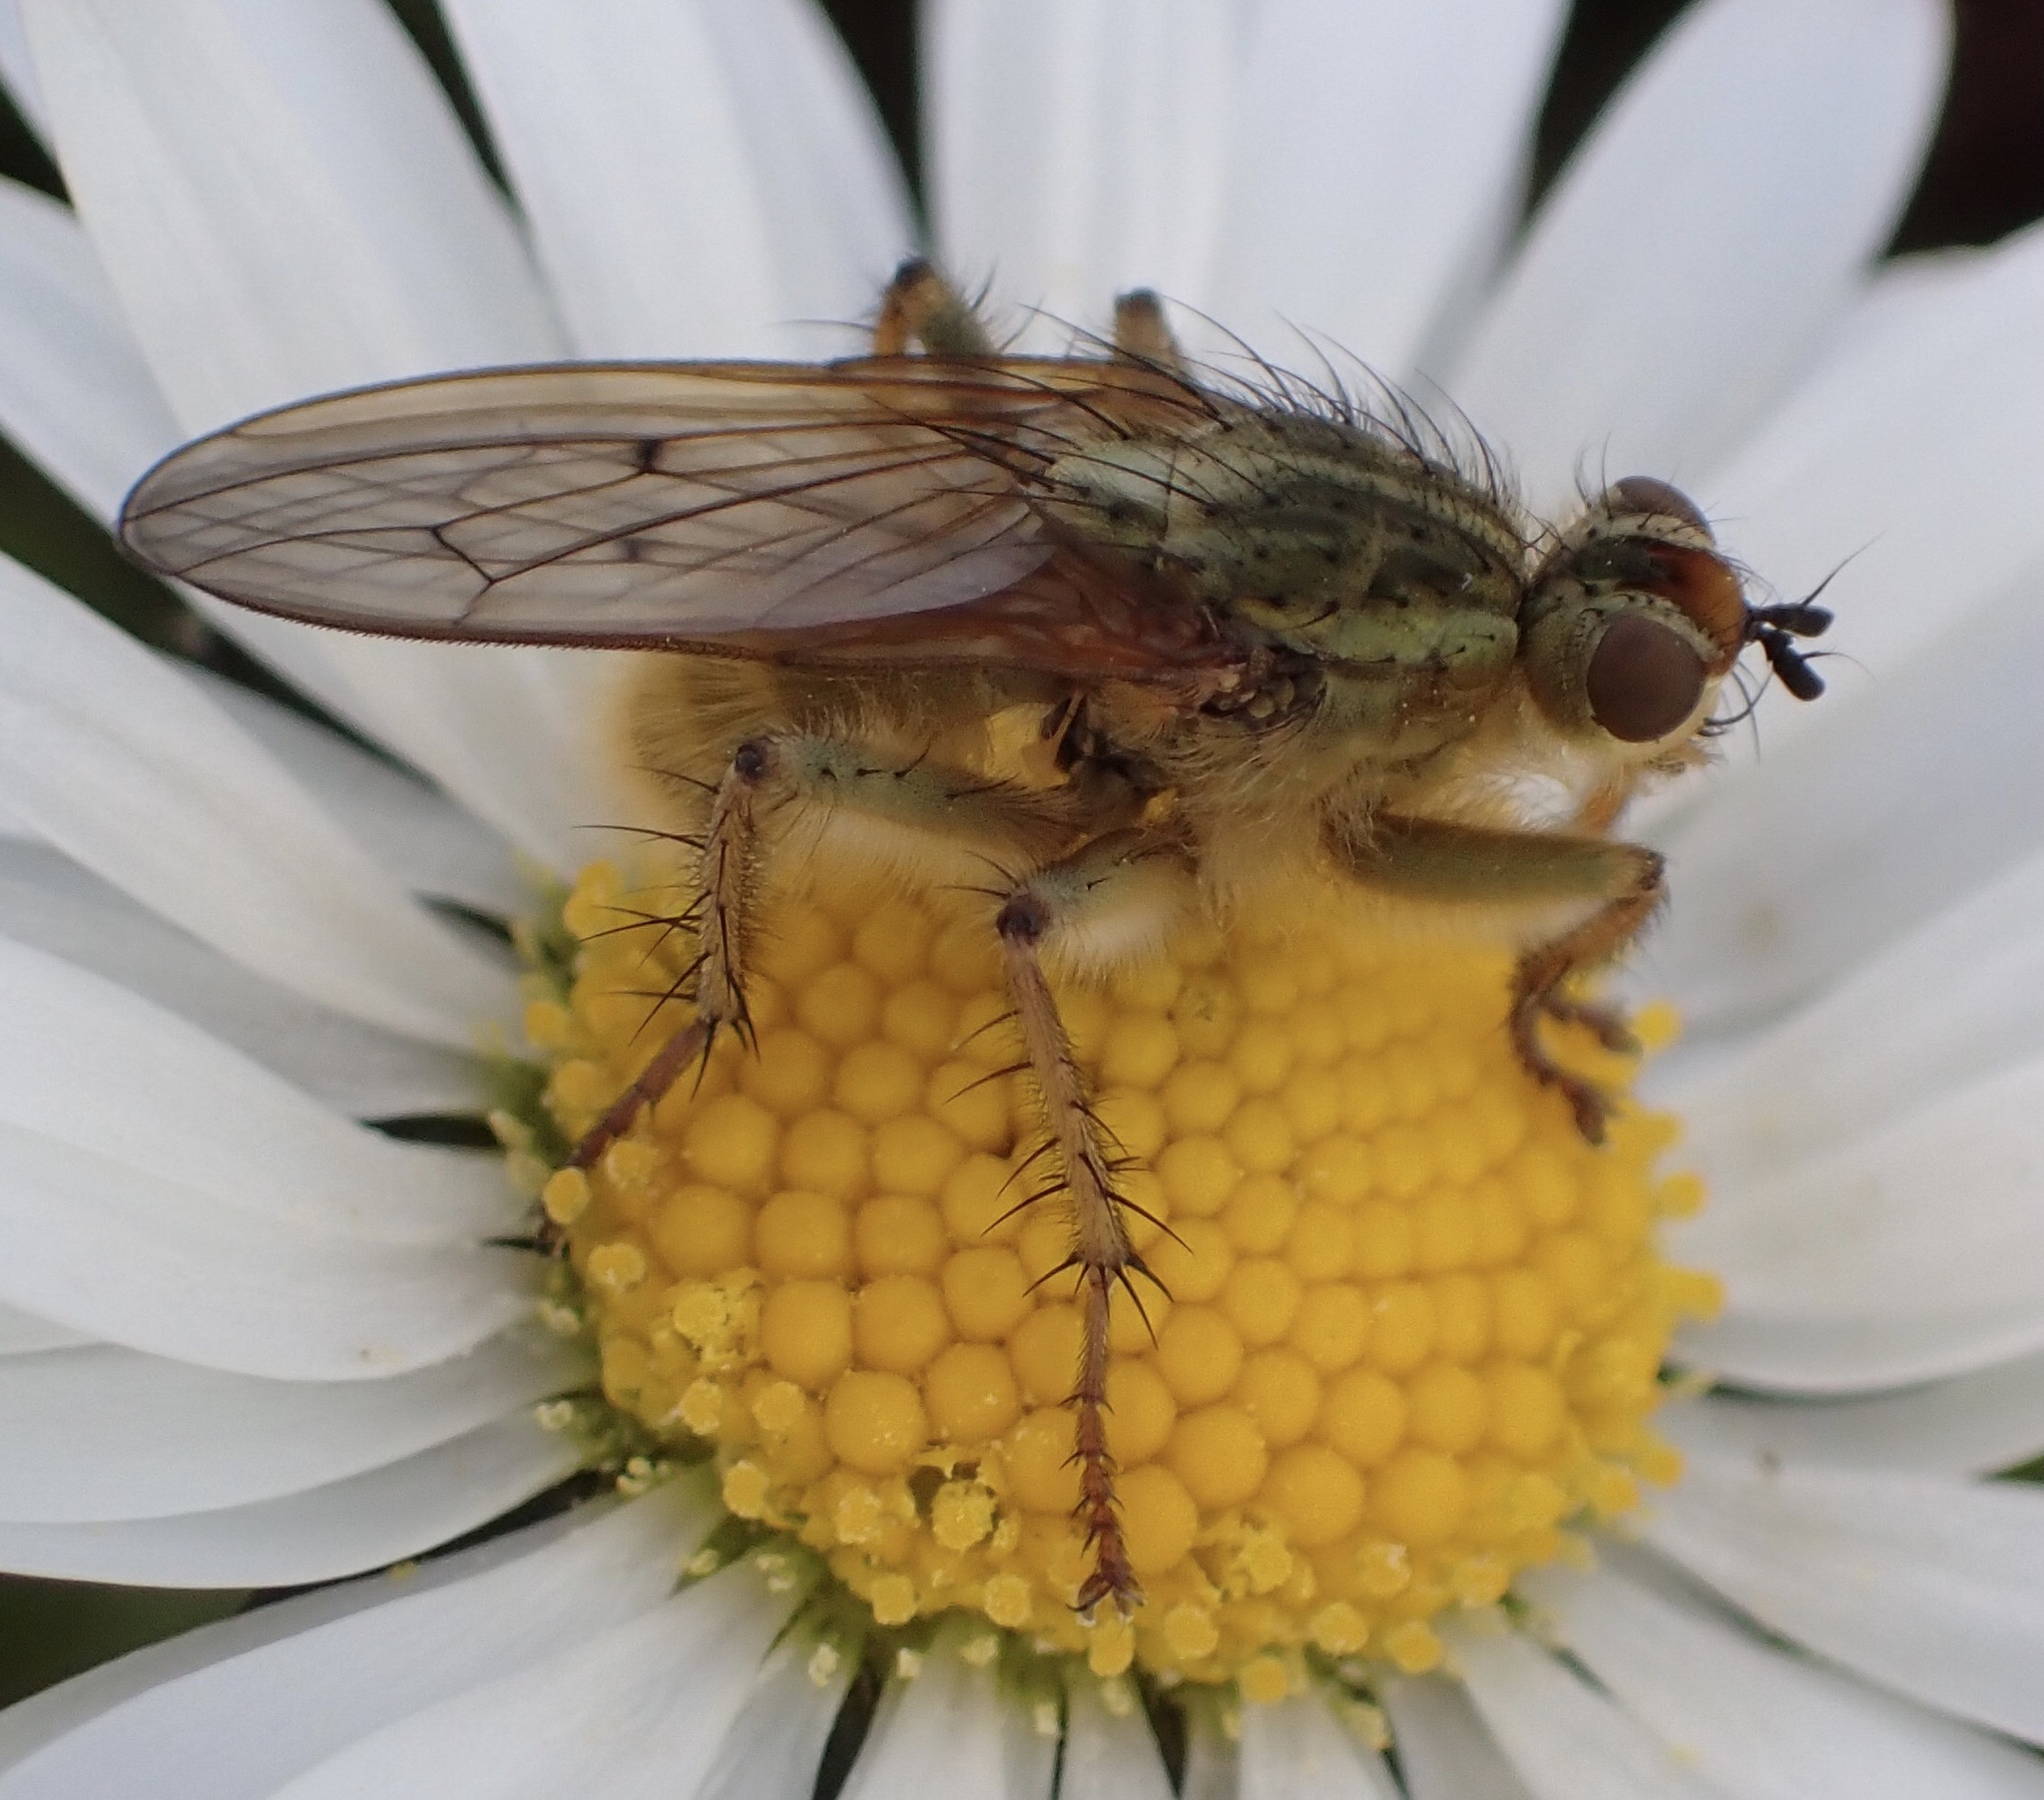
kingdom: Animalia
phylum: Arthropoda
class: Insecta
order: Diptera
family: Scathophagidae
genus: Scathophaga
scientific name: Scathophaga stercoraria
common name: Yellow dung fly
